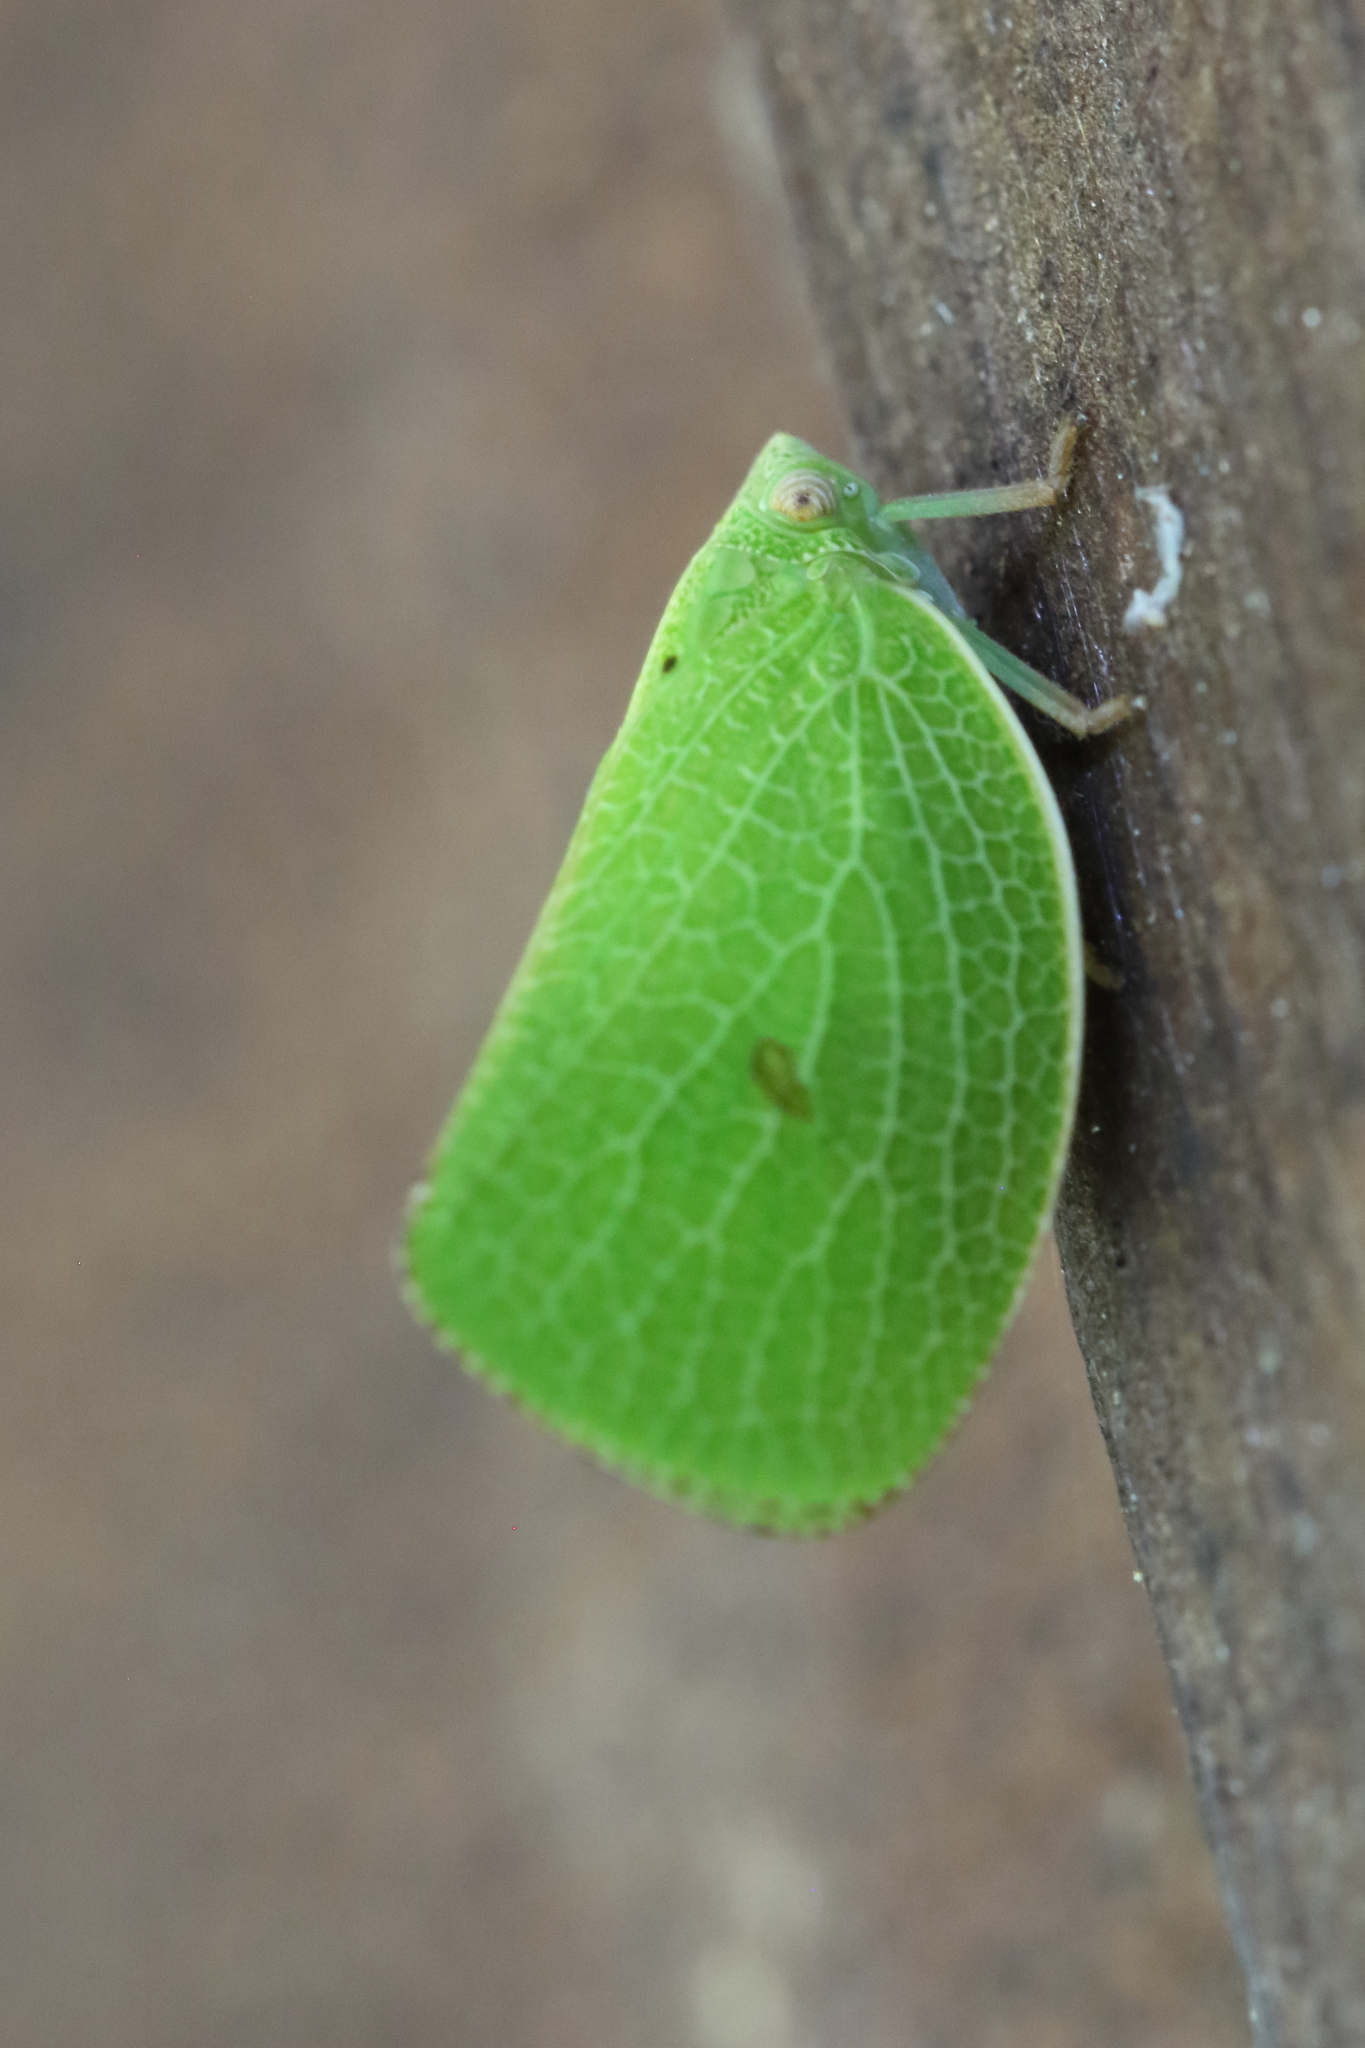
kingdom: Animalia
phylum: Arthropoda
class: Insecta
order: Hemiptera
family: Acanaloniidae
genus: Acanalonia
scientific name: Acanalonia conica
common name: Green cone-headed planthopper
